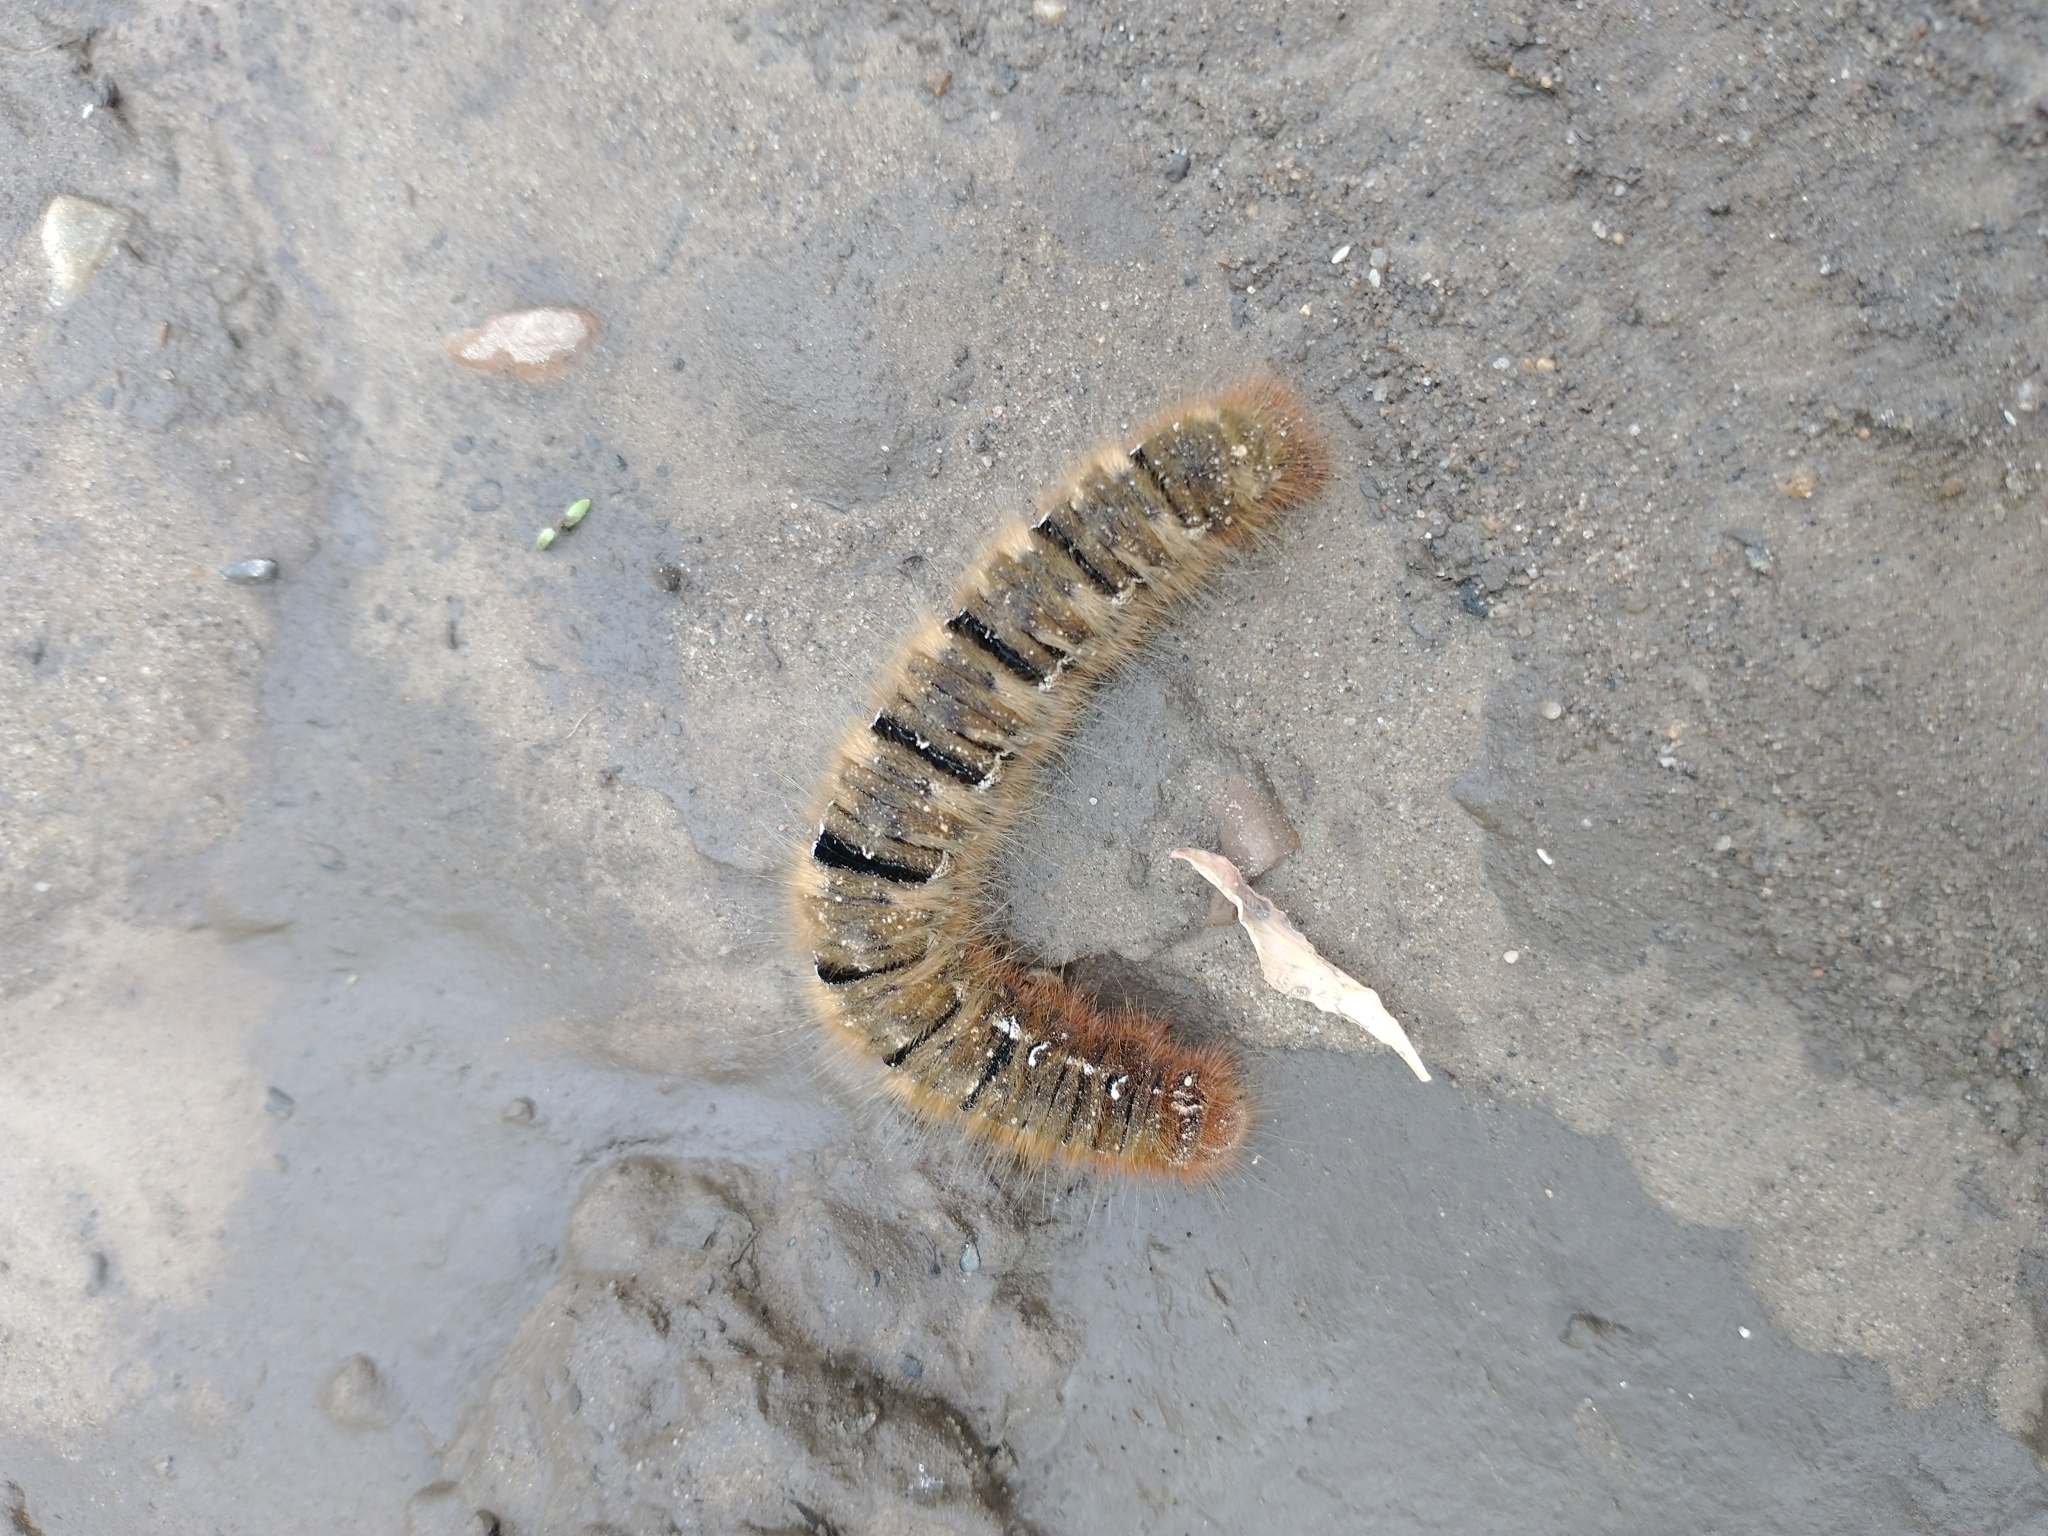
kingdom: Animalia
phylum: Arthropoda
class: Insecta
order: Lepidoptera
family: Lasiocampidae
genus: Lasiocampa
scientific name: Lasiocampa quercus
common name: Oak eggar
